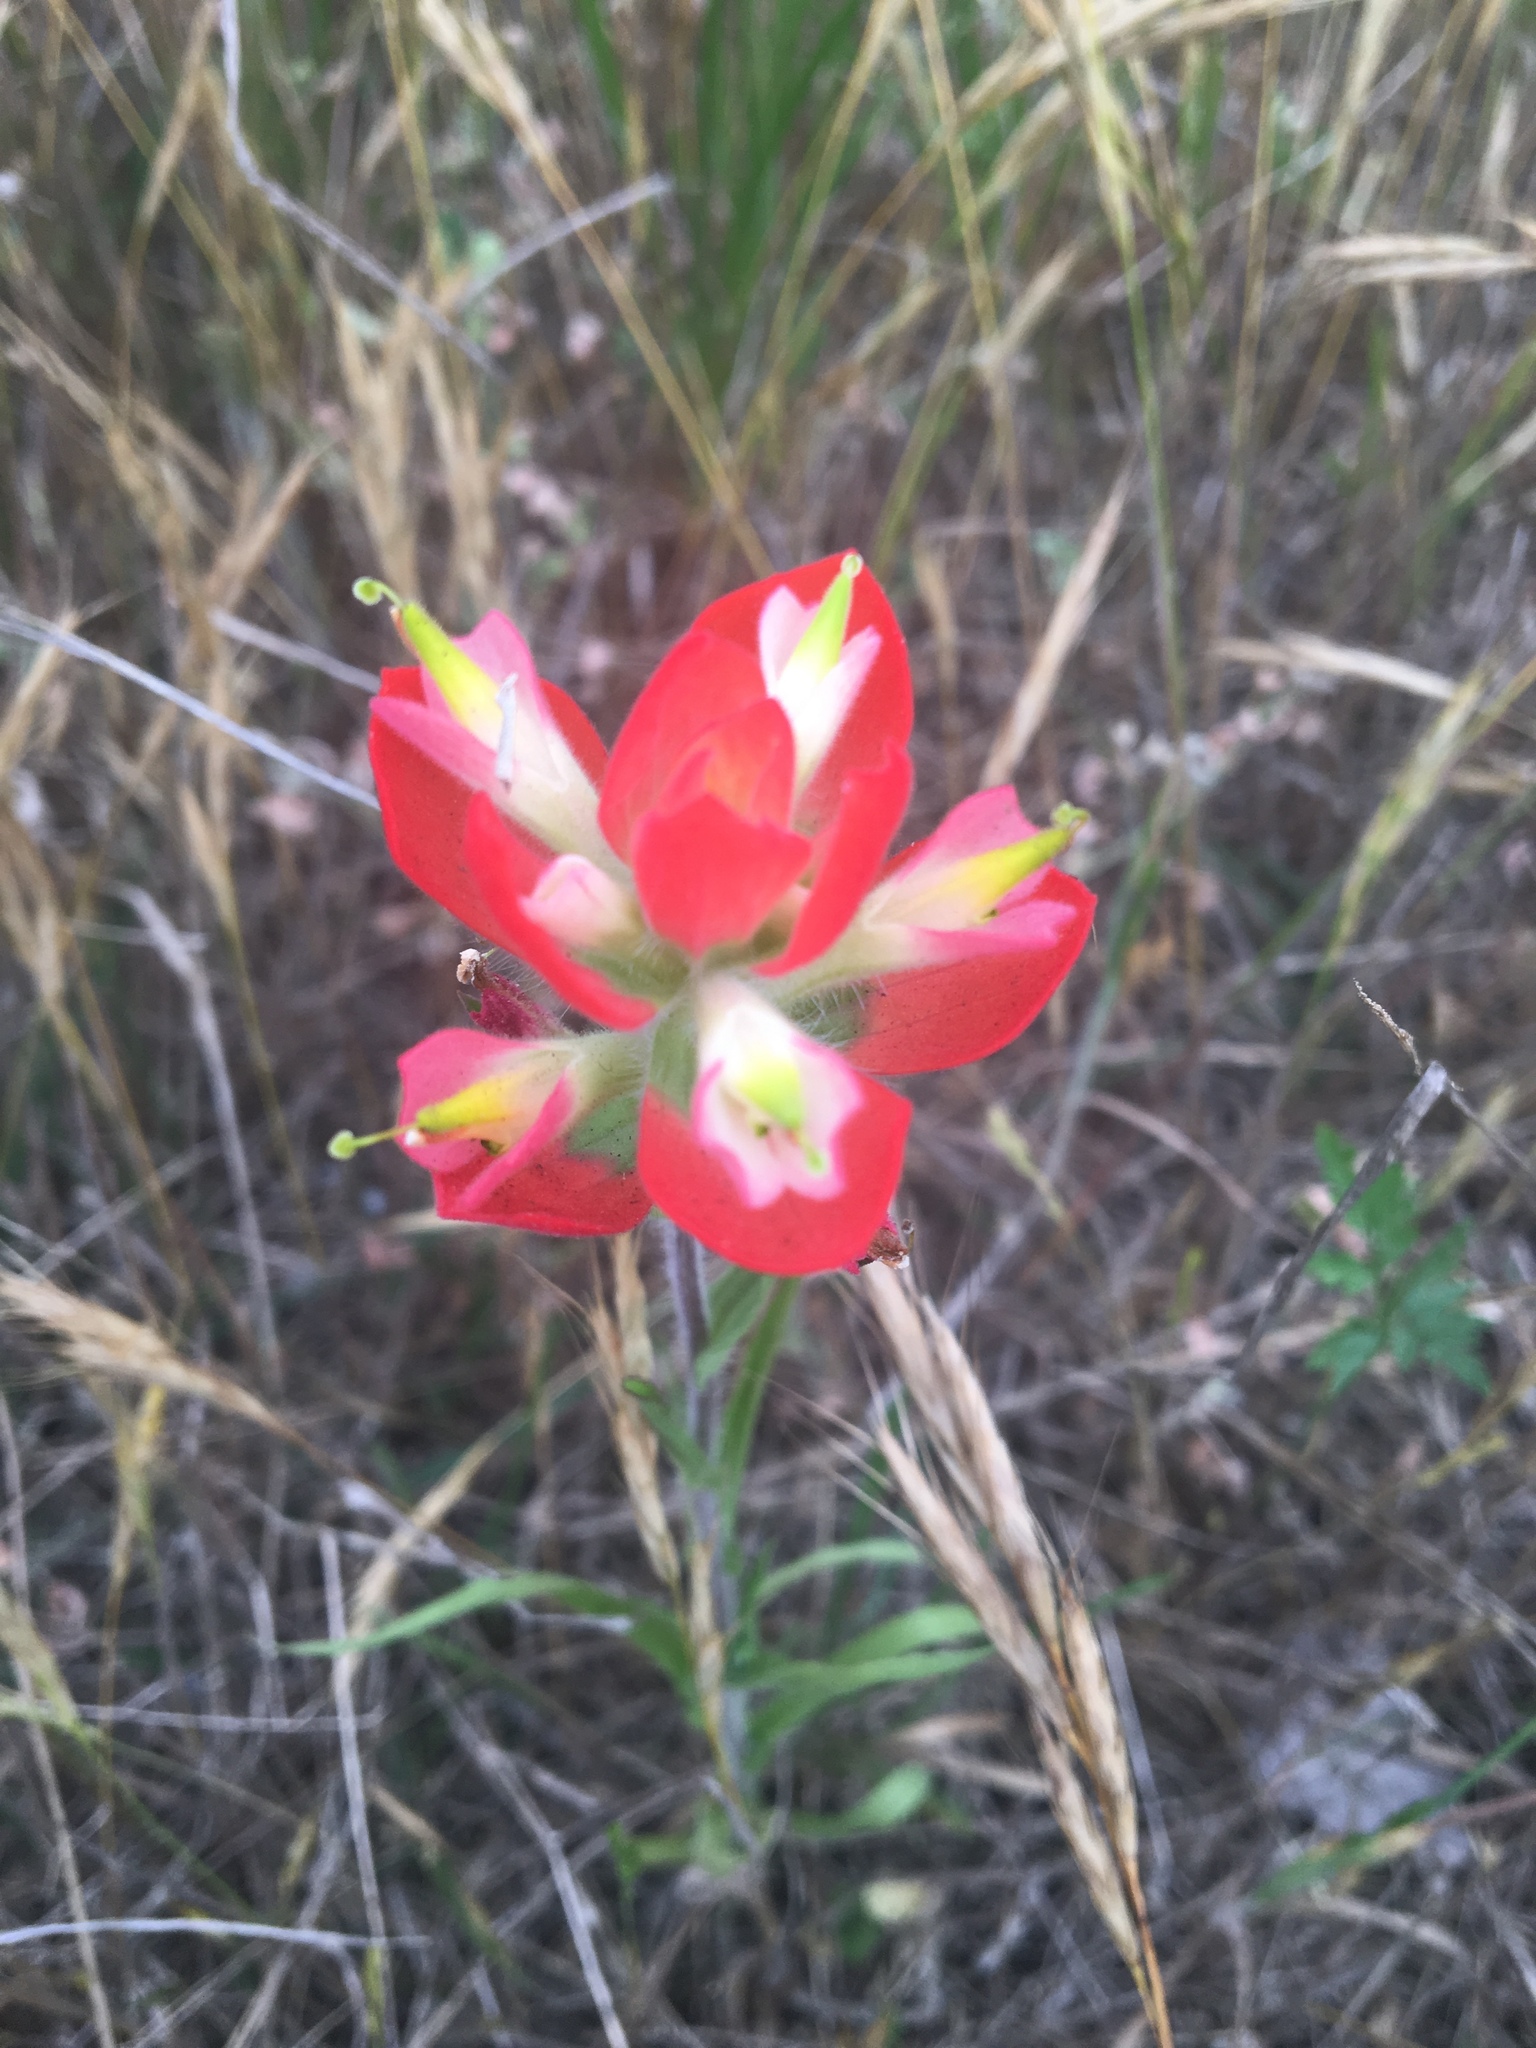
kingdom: Plantae
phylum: Tracheophyta
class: Magnoliopsida
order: Lamiales
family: Orobanchaceae
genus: Castilleja
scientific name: Castilleja indivisa
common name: Texas paintbrush
